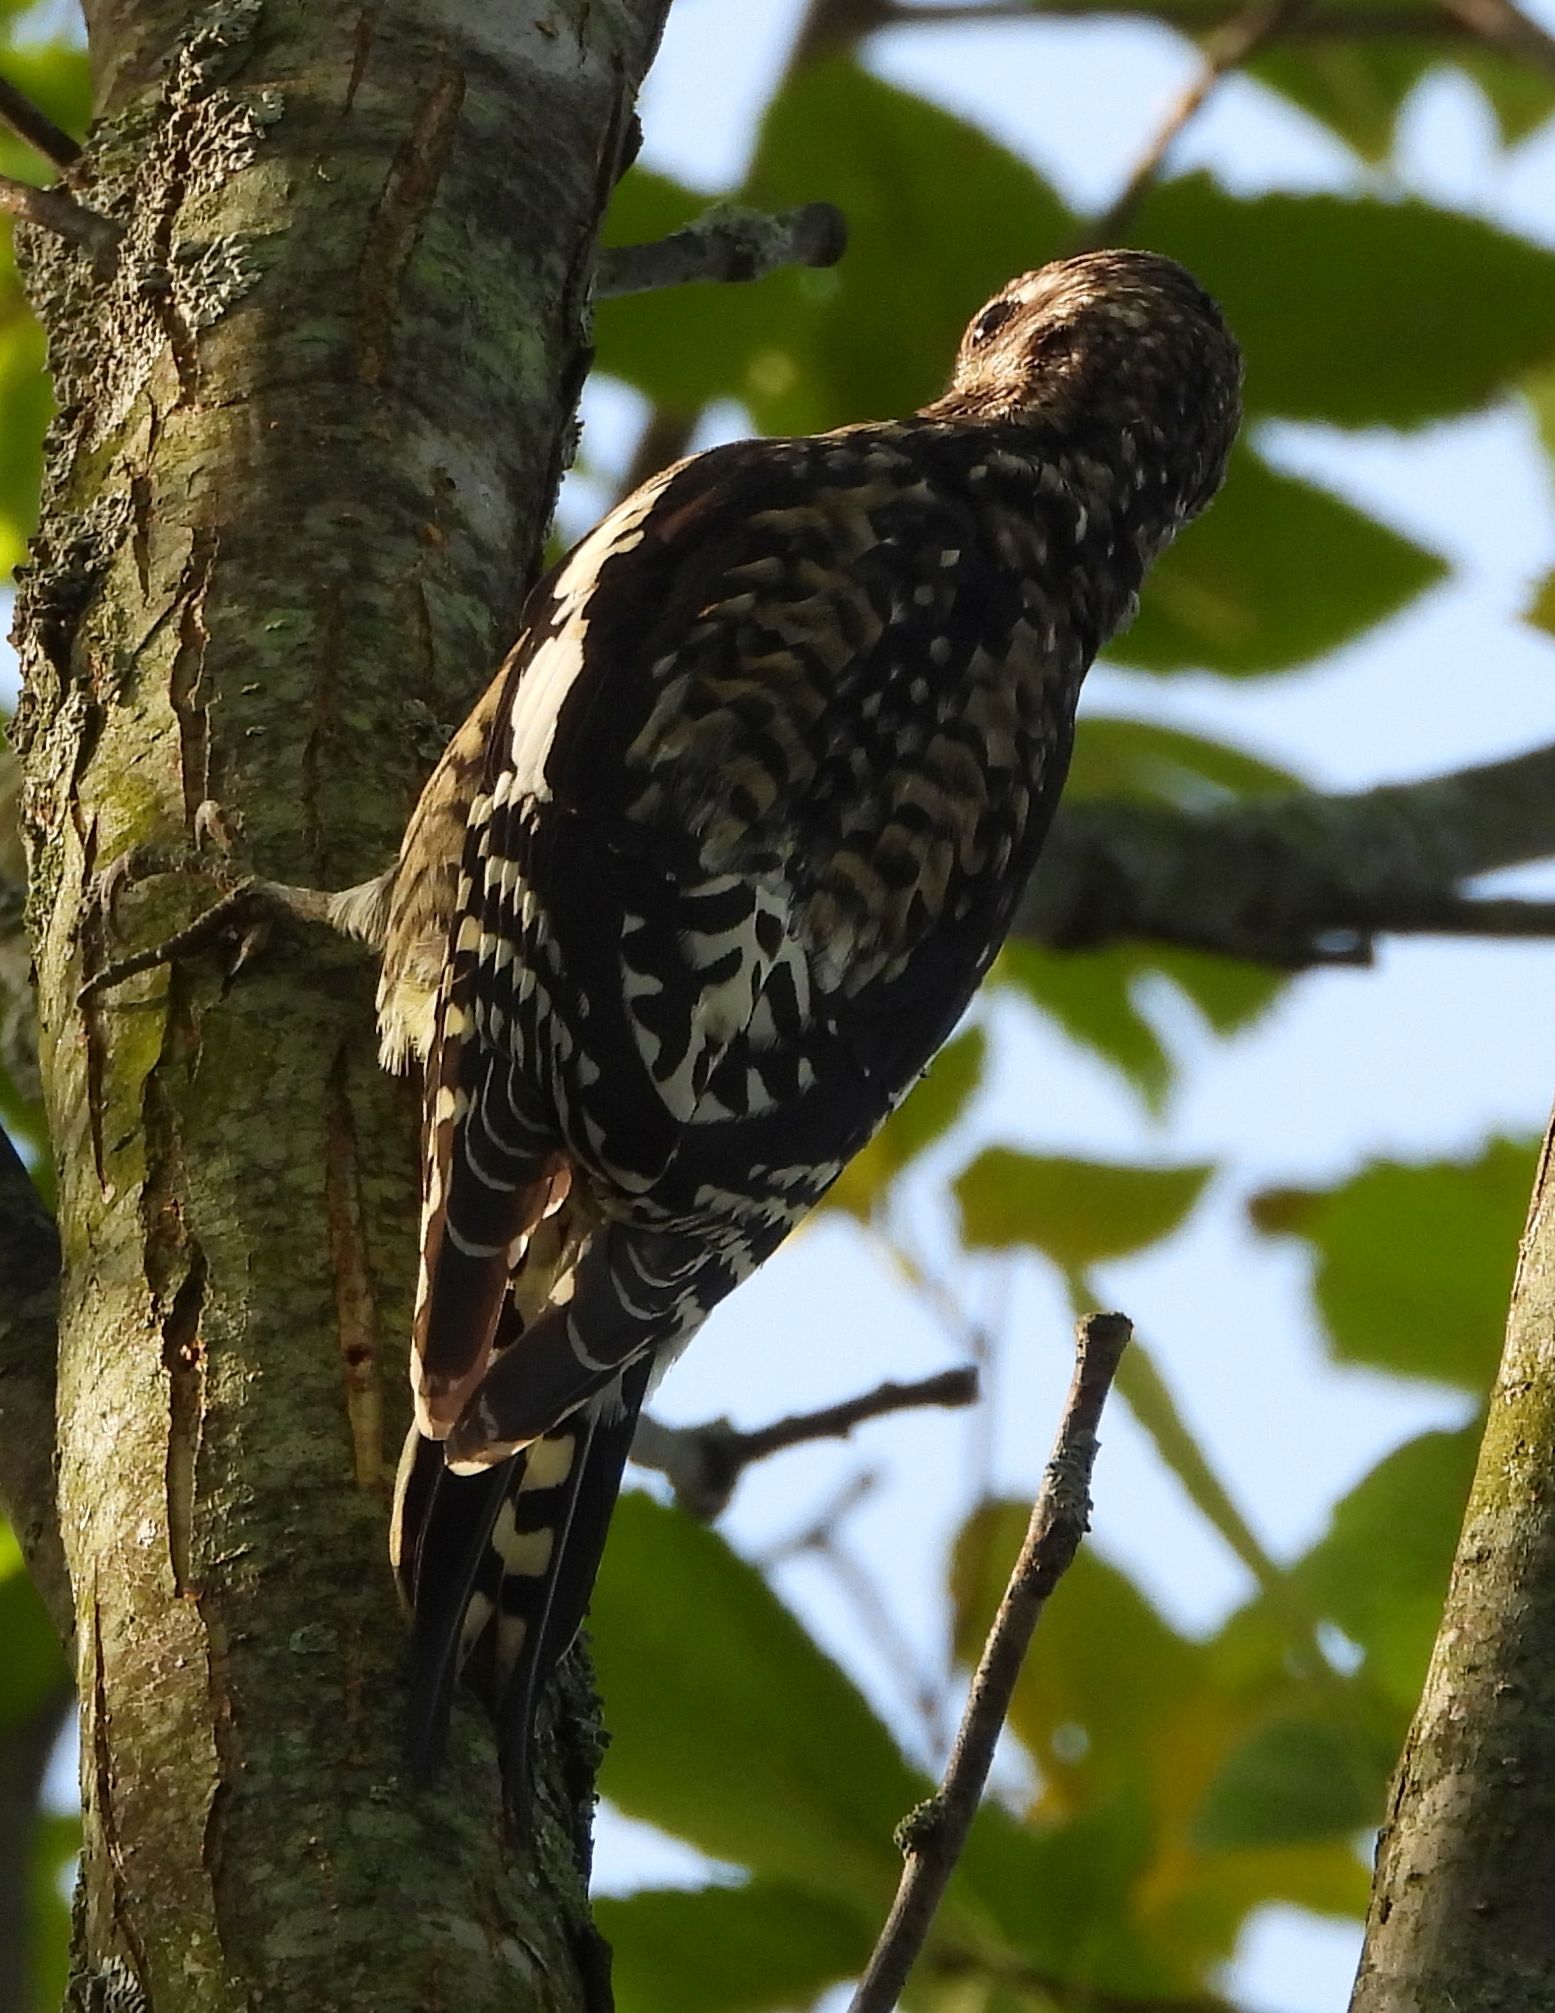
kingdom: Animalia
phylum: Chordata
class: Aves
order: Piciformes
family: Picidae
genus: Sphyrapicus
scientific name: Sphyrapicus varius
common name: Yellow-bellied sapsucker
